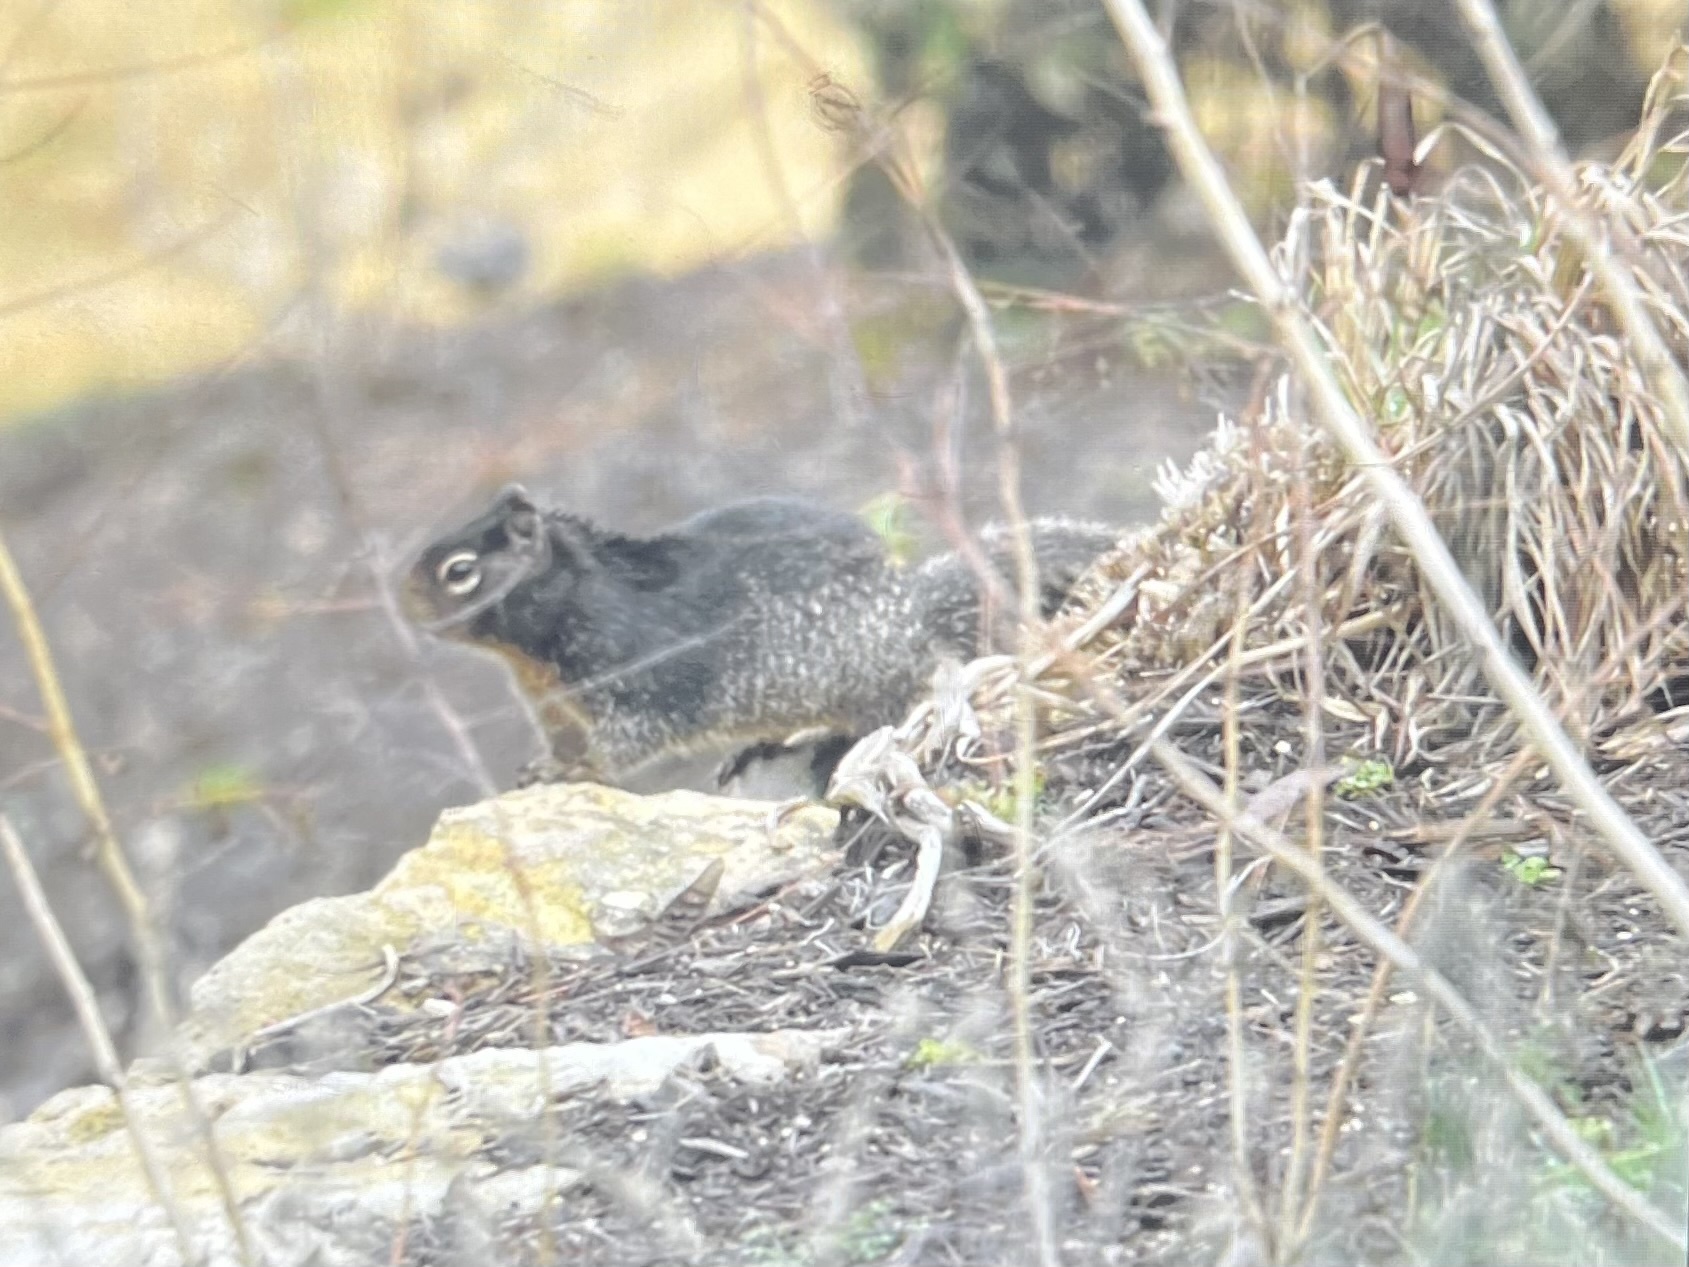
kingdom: Animalia
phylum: Chordata
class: Mammalia
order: Rodentia
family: Sciuridae
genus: Otospermophilus
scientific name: Otospermophilus variegatus
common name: Rock squirrel
